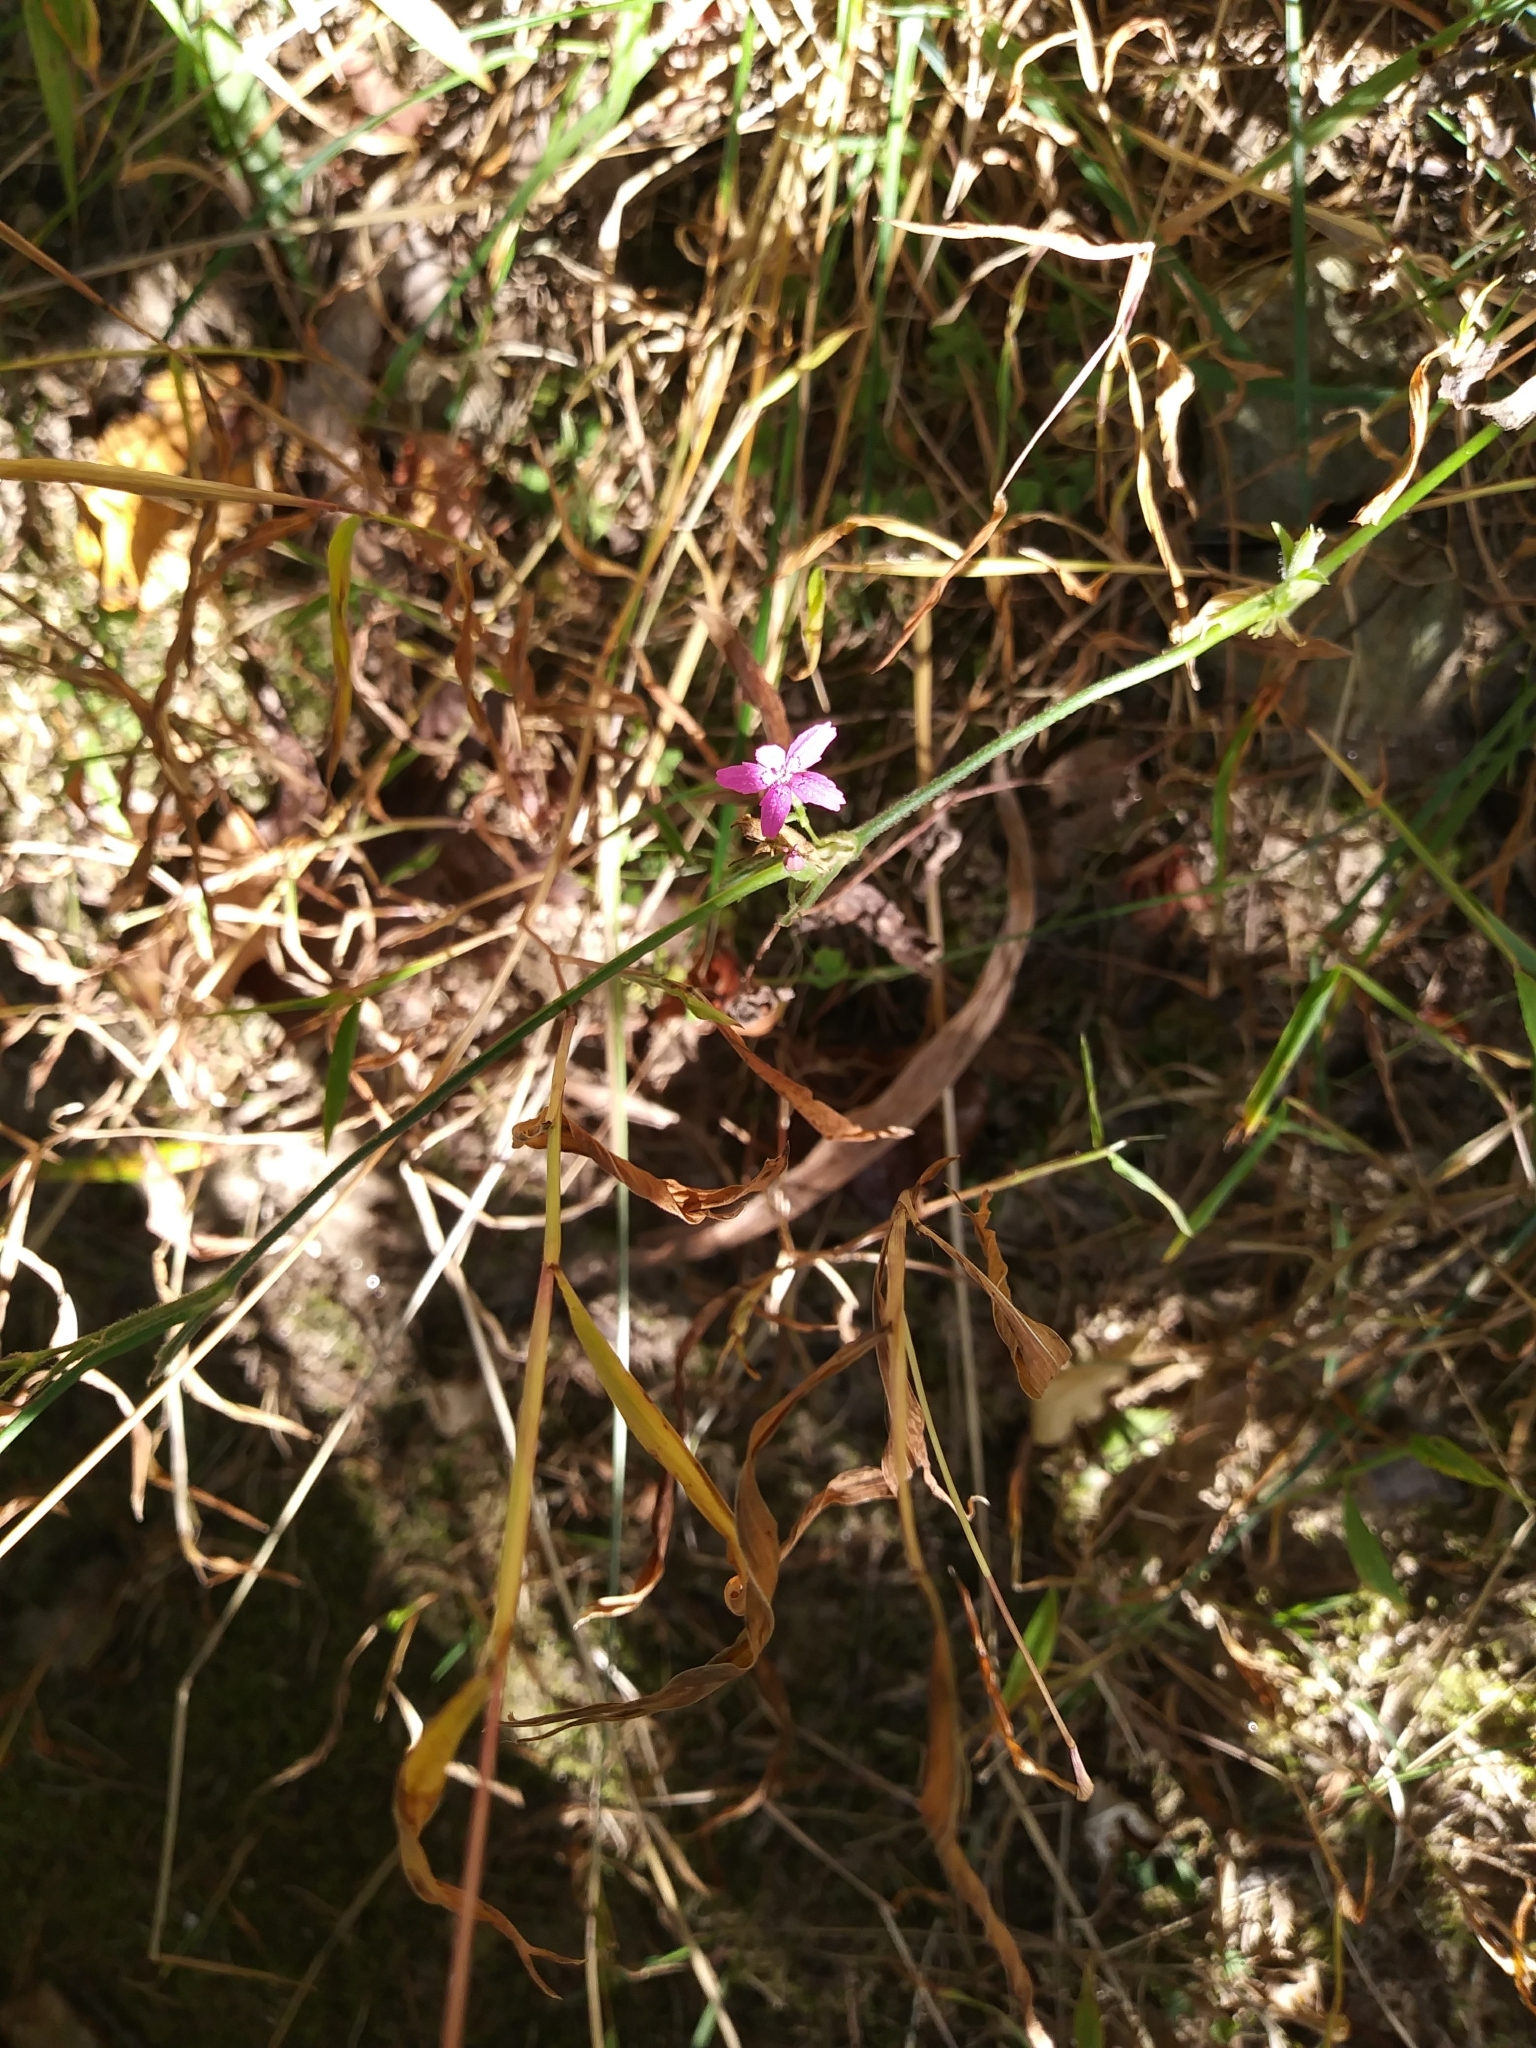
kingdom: Plantae
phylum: Tracheophyta
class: Magnoliopsida
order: Caryophyllales
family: Caryophyllaceae
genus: Dianthus
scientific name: Dianthus armeria
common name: Deptford pink
